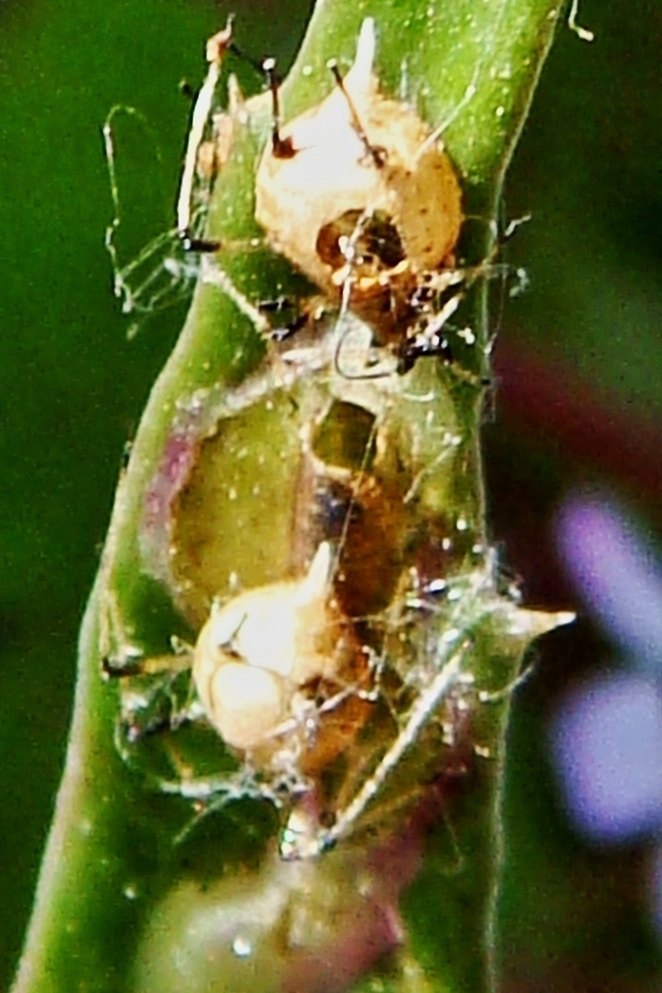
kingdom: Animalia
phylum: Arthropoda
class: Insecta
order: Hymenoptera
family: Braconidae
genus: Aphidius
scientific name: Aphidius colemani
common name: Parasitoid wasp
